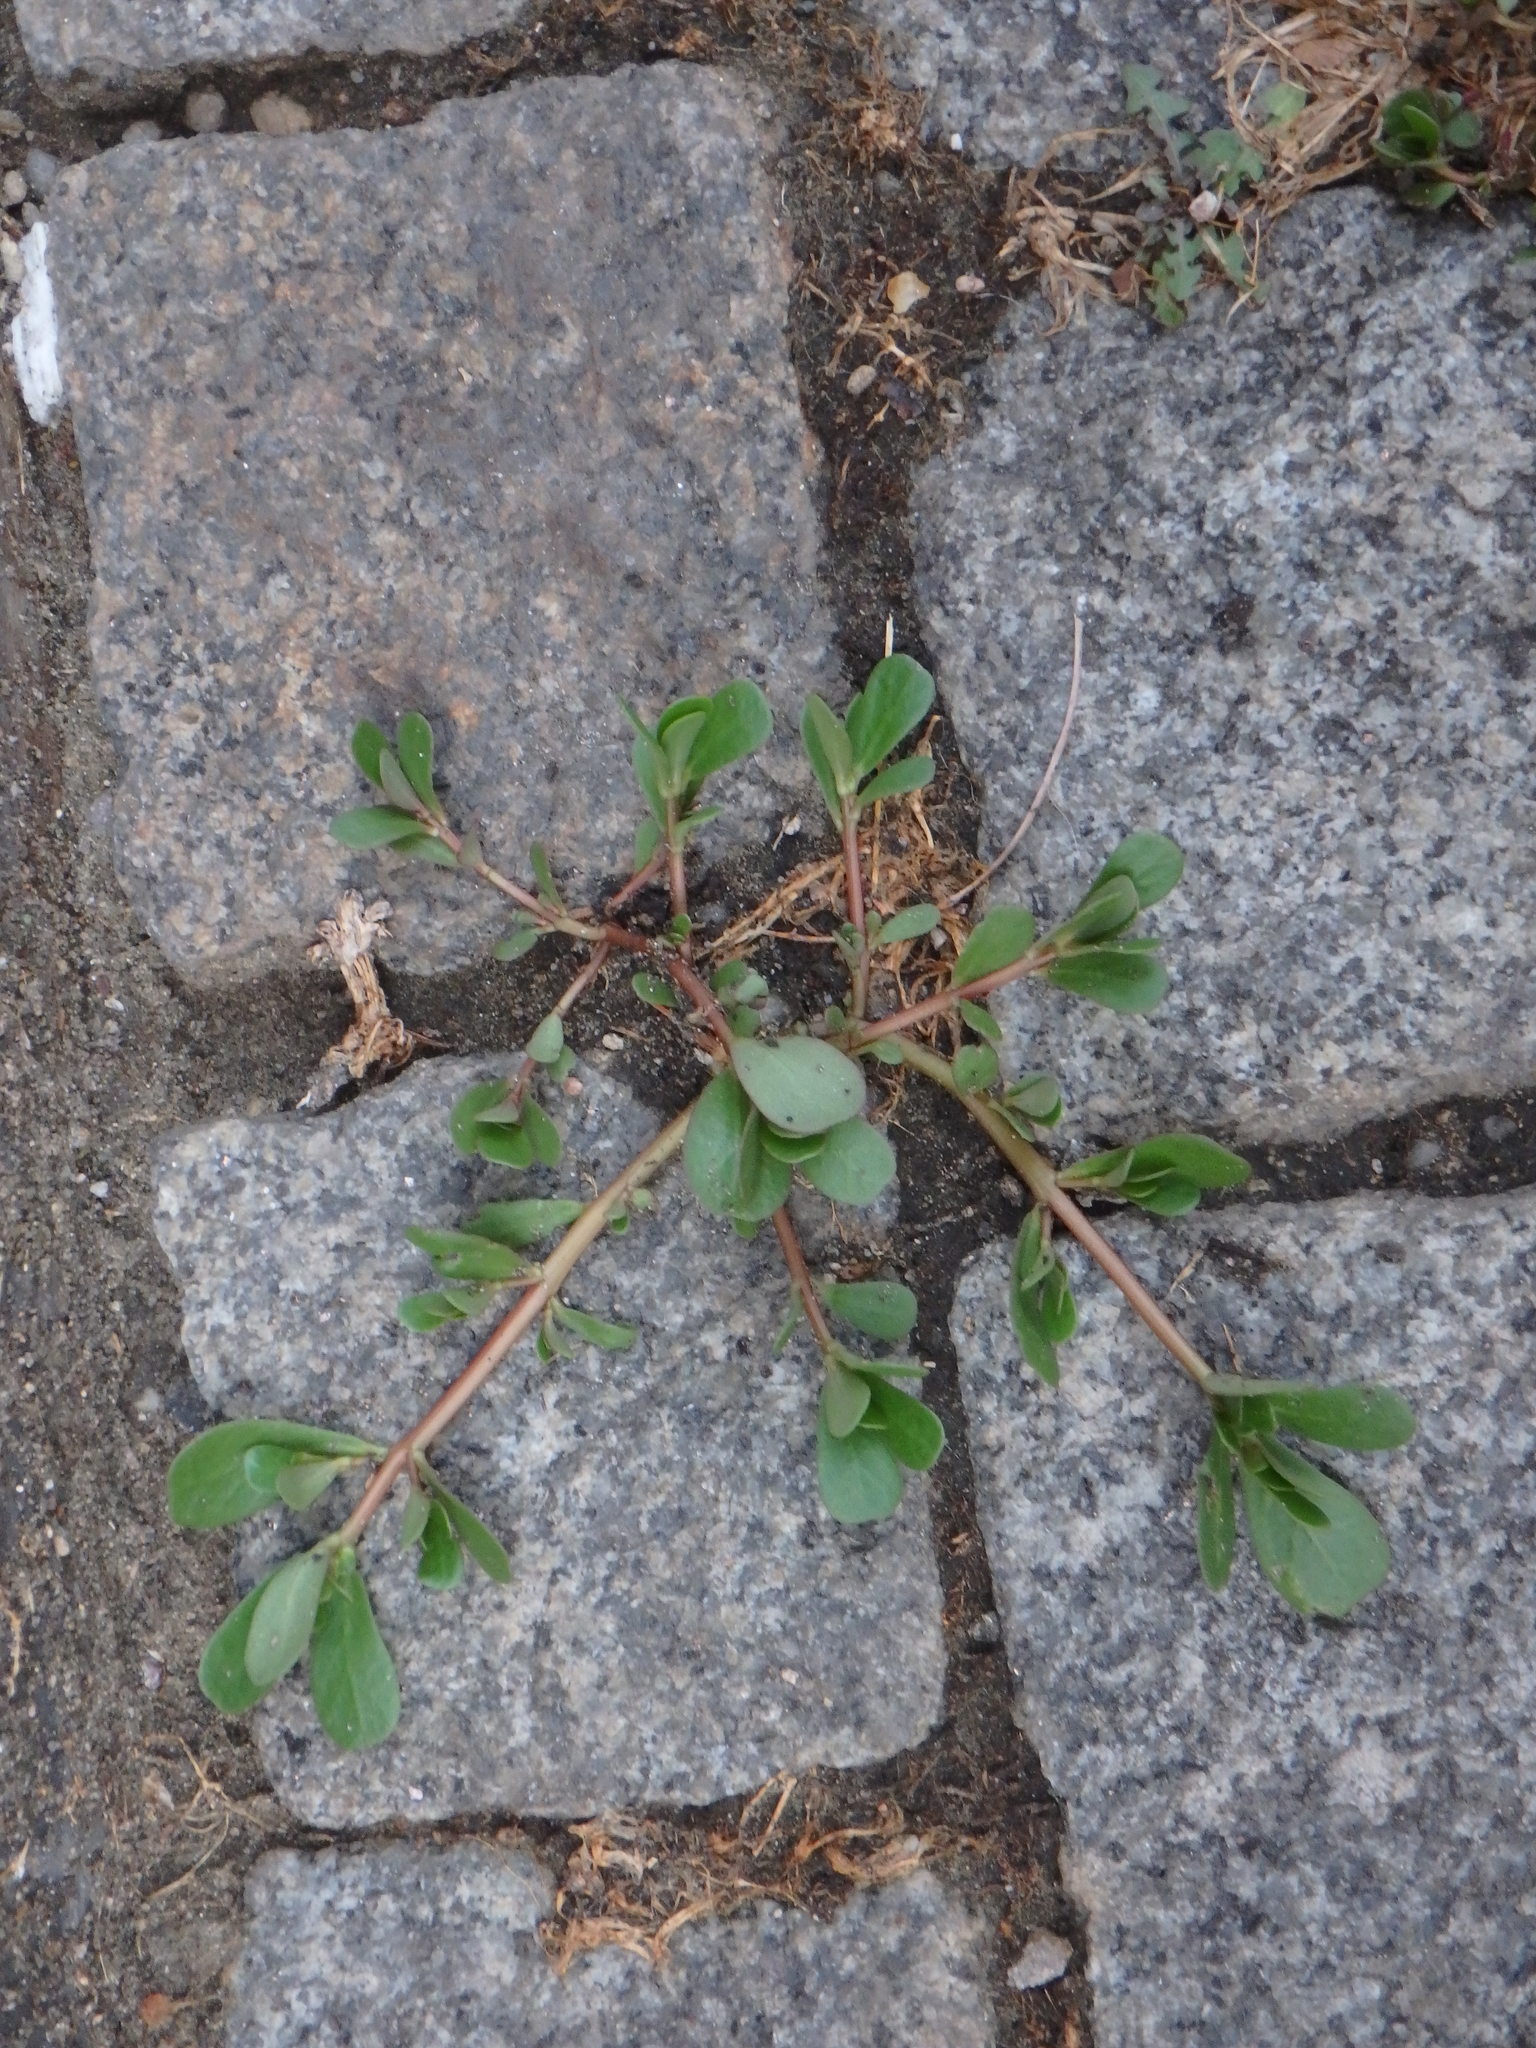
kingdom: Plantae
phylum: Tracheophyta
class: Magnoliopsida
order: Caryophyllales
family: Portulacaceae
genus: Portulaca
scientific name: Portulaca oleracea
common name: Common purslane
